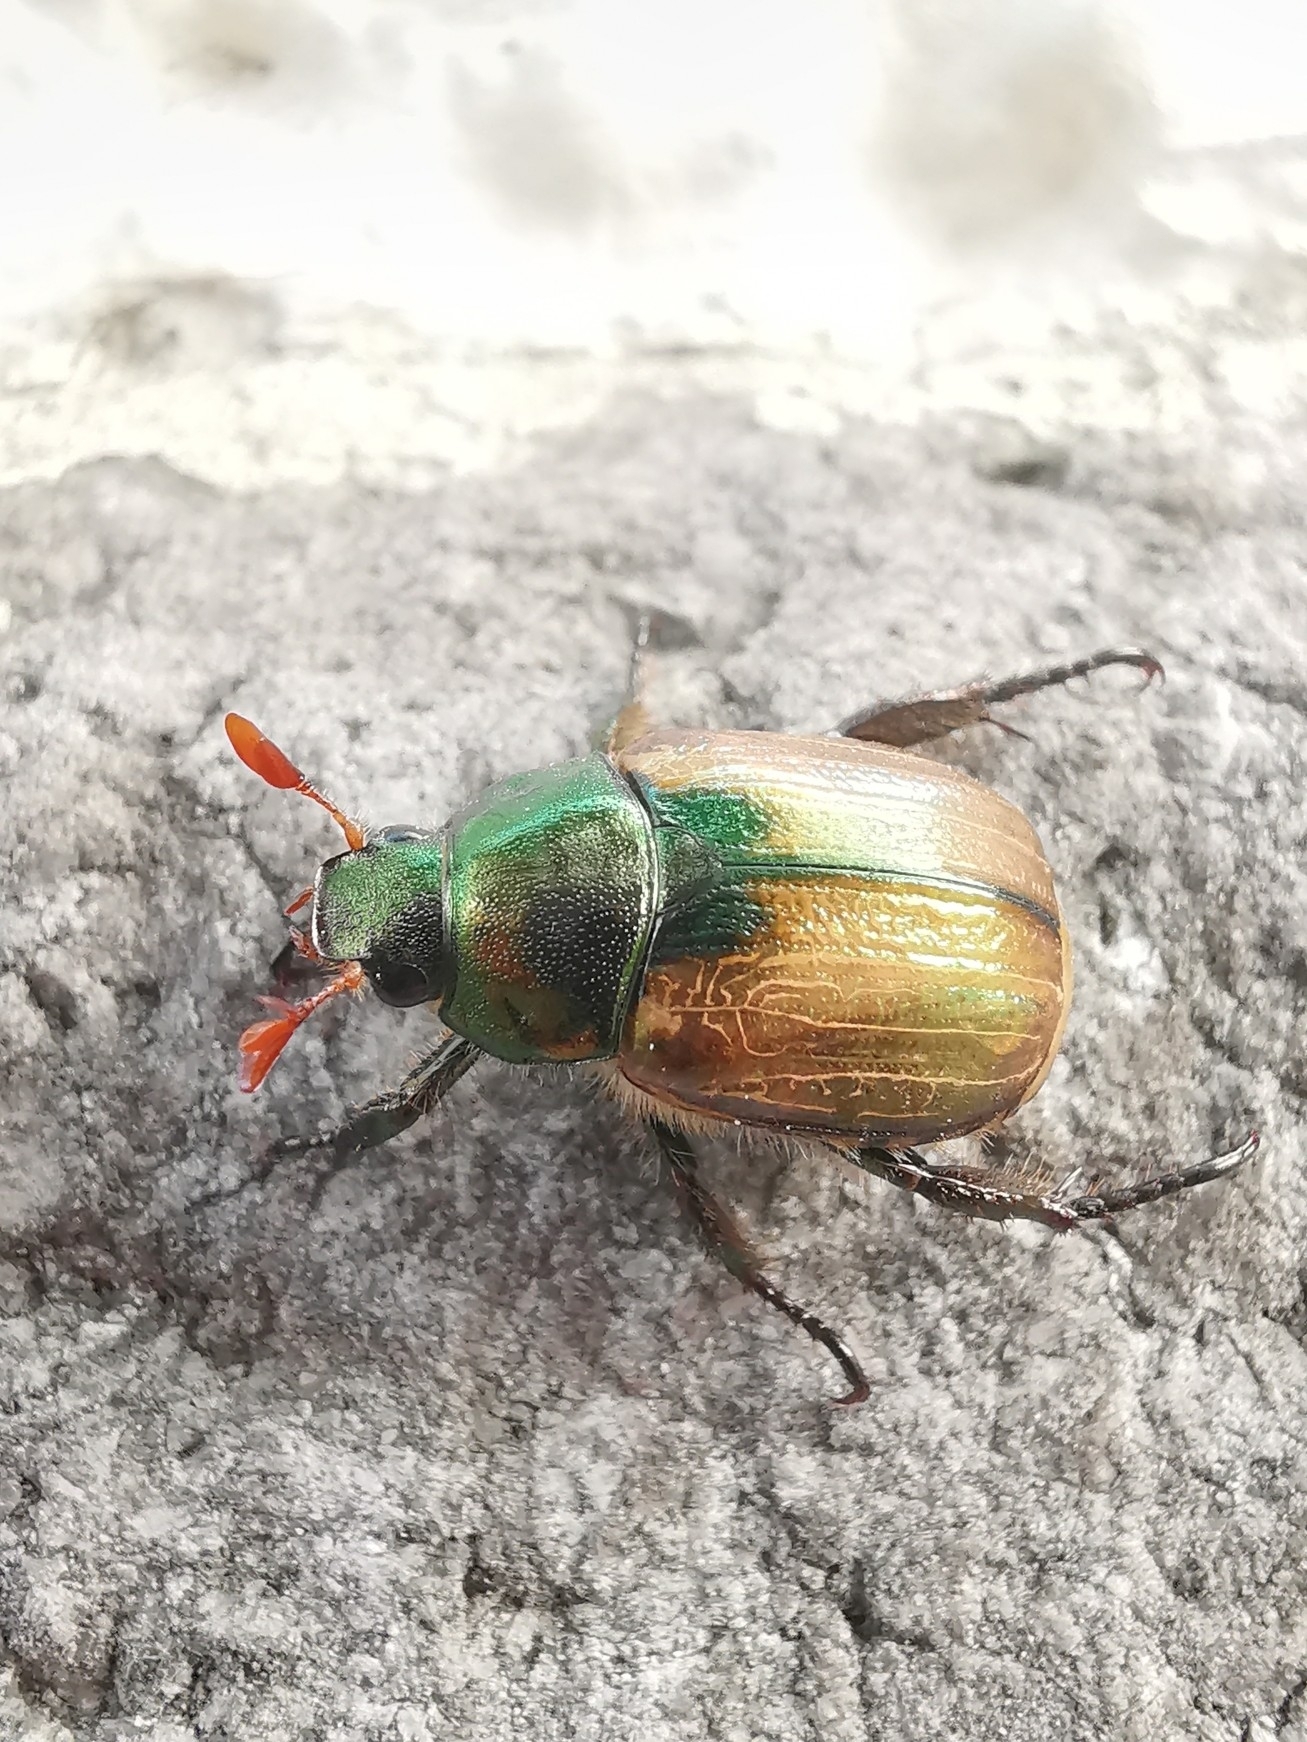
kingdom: Animalia
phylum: Arthropoda
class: Insecta
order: Coleoptera
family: Scarabaeidae
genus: Mimela
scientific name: Mimela junii
